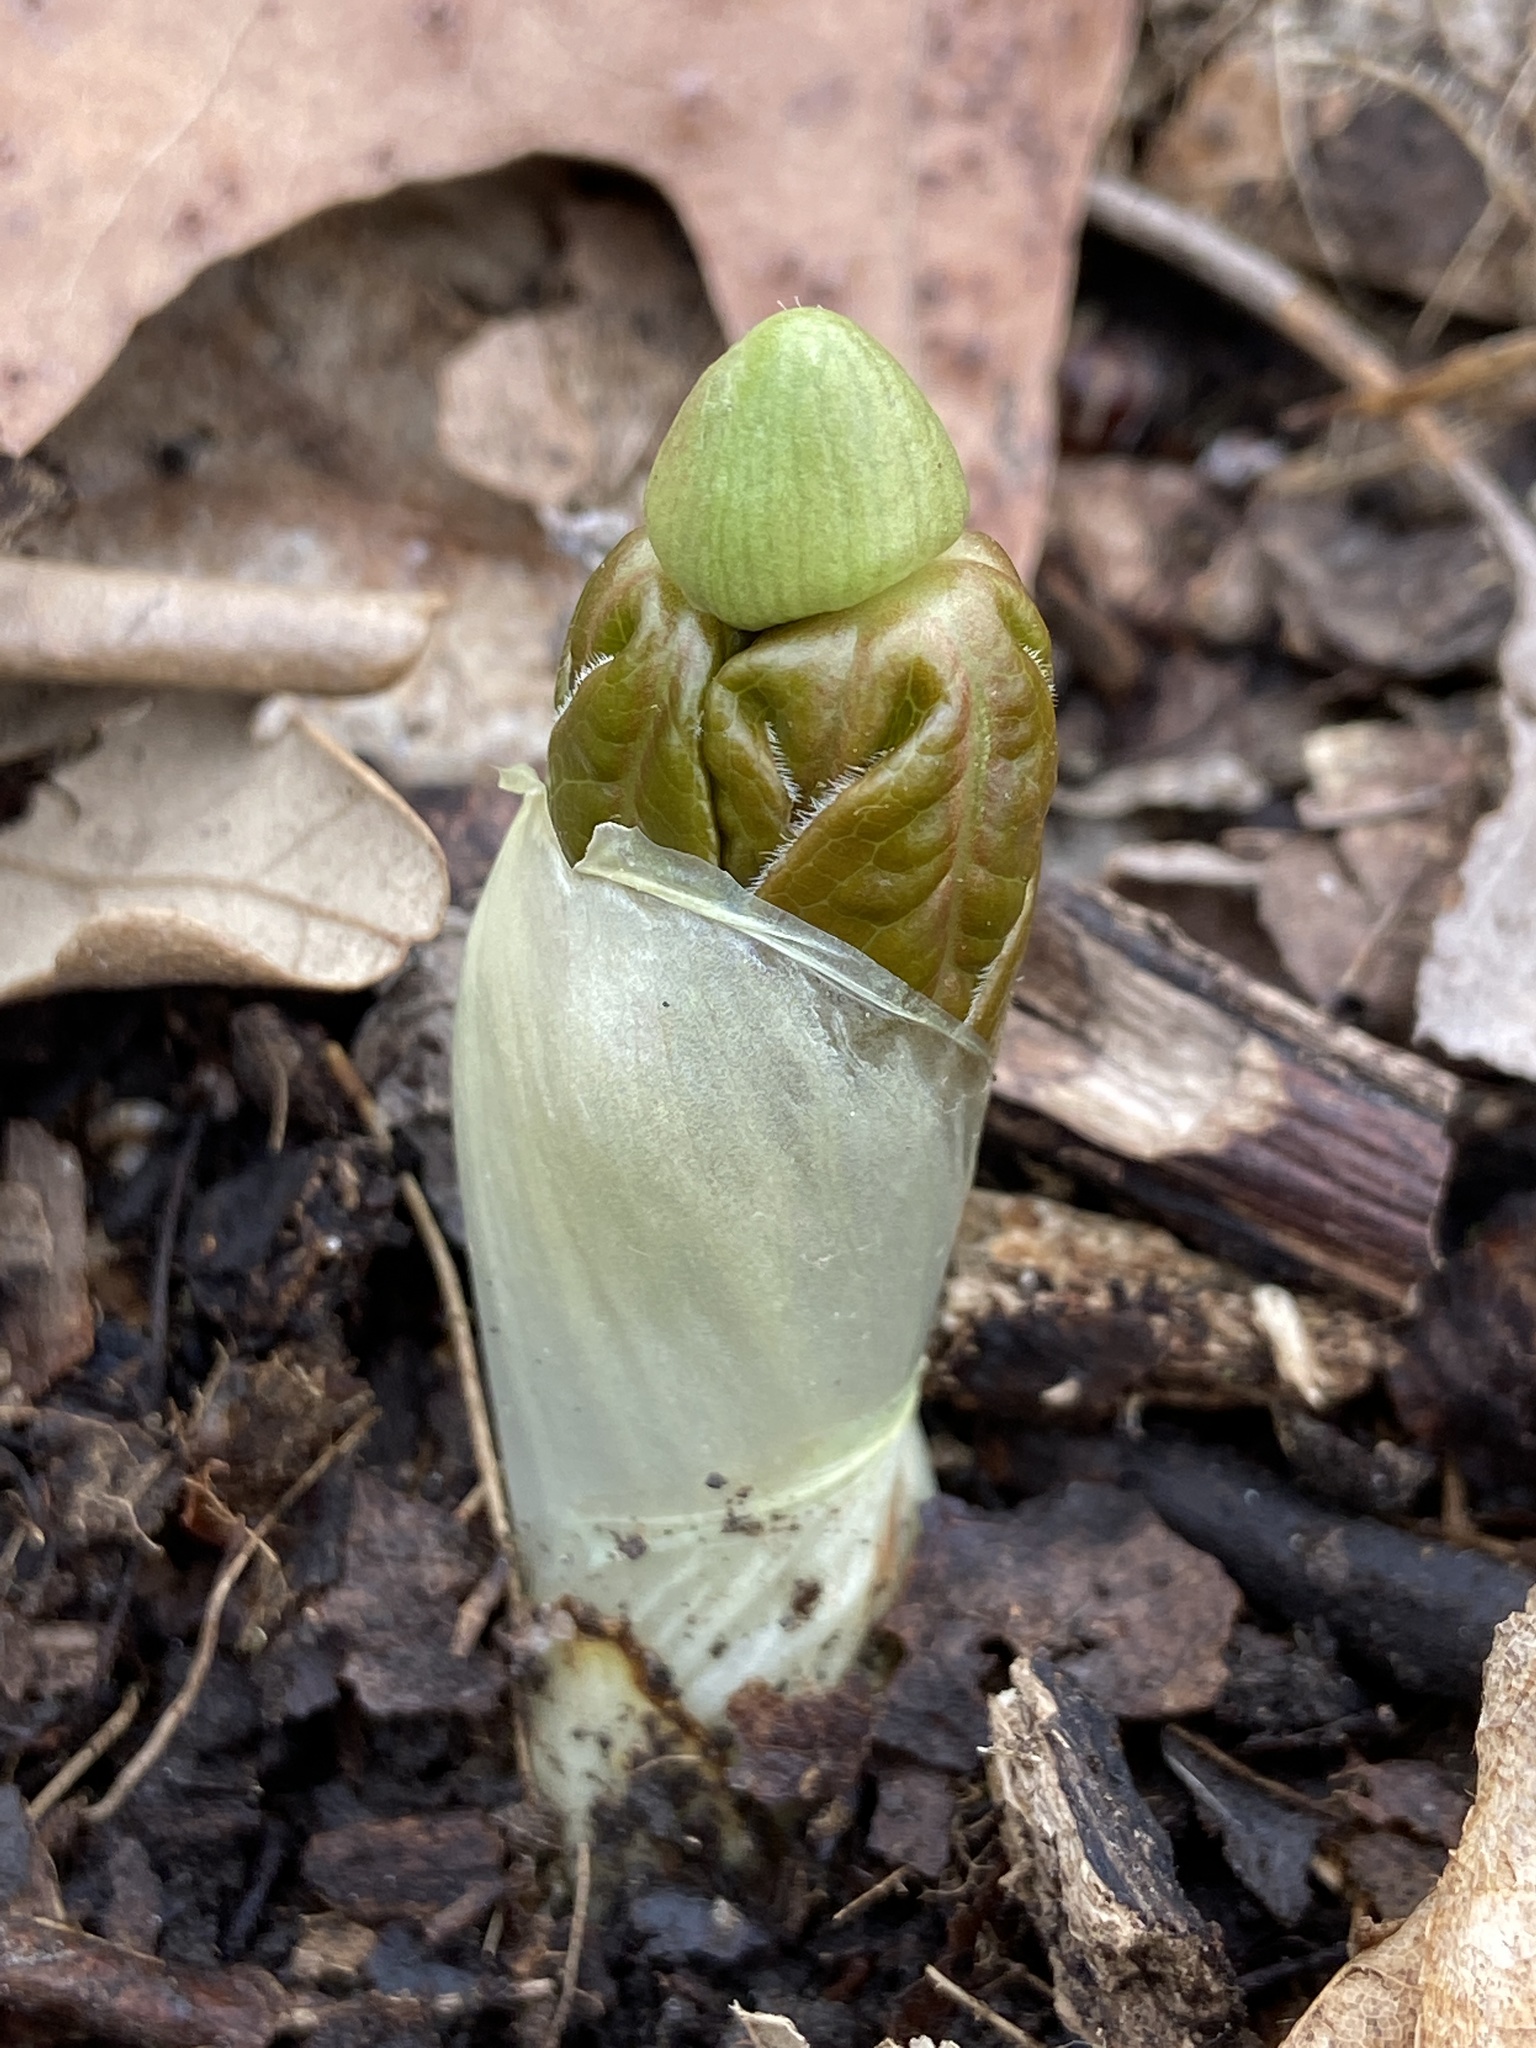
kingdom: Plantae
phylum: Tracheophyta
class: Magnoliopsida
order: Ranunculales
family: Berberidaceae
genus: Podophyllum
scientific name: Podophyllum peltatum
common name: Wild mandrake
